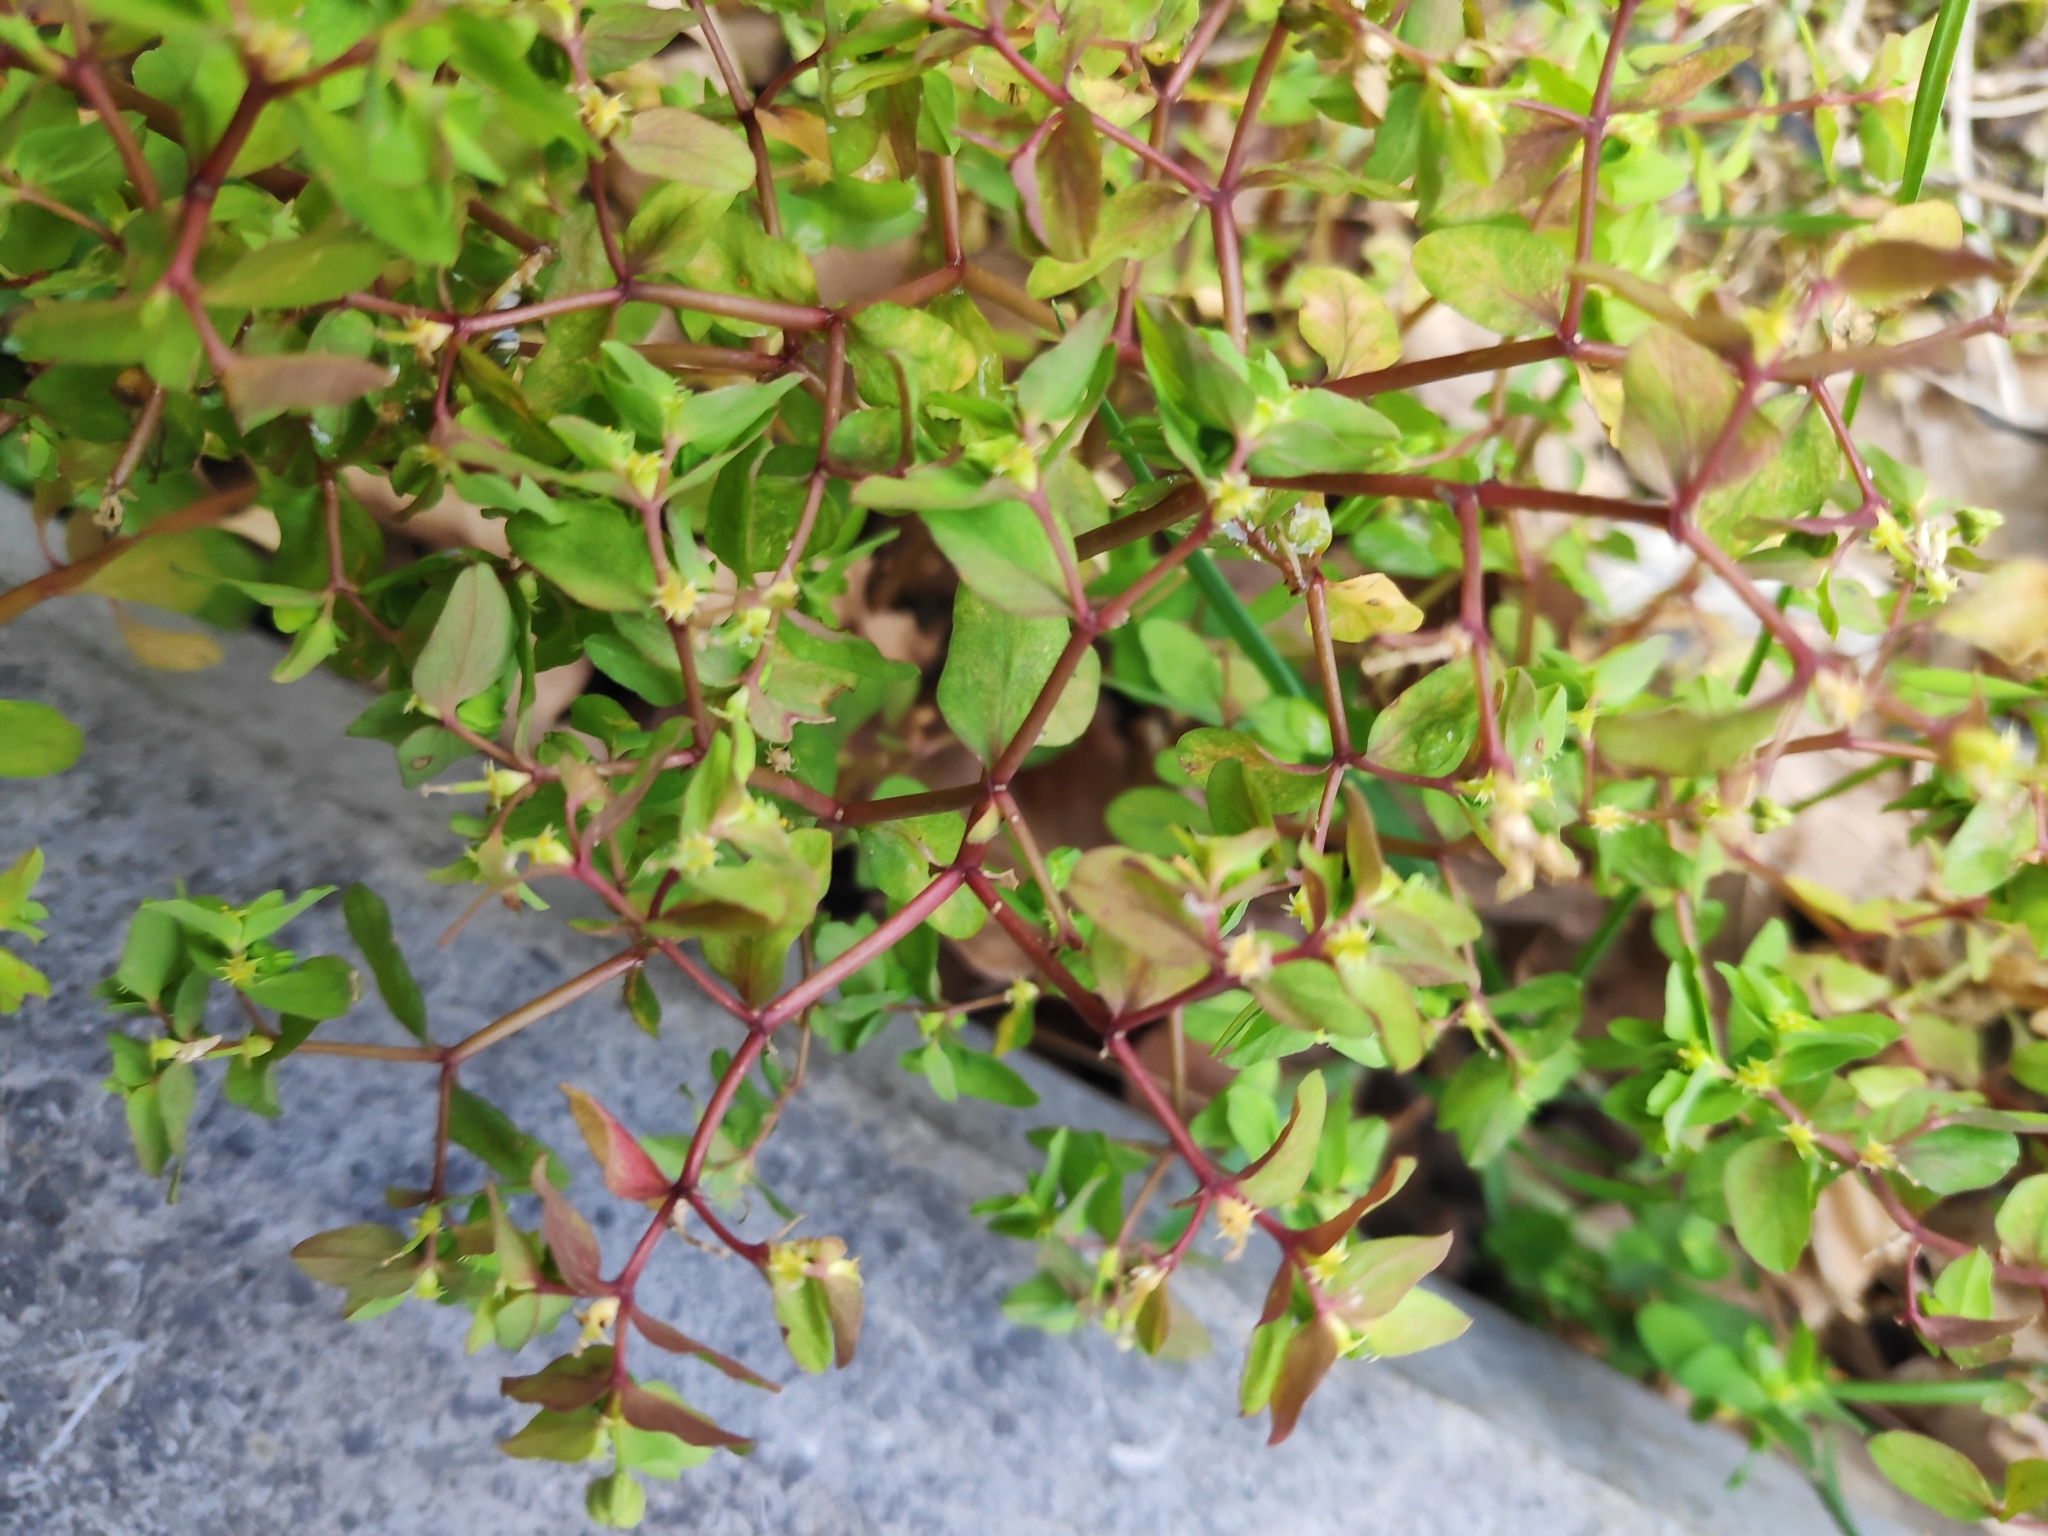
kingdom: Plantae
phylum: Tracheophyta
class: Magnoliopsida
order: Malpighiales
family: Euphorbiaceae
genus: Euphorbia
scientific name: Euphorbia peplus
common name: Petty spurge
